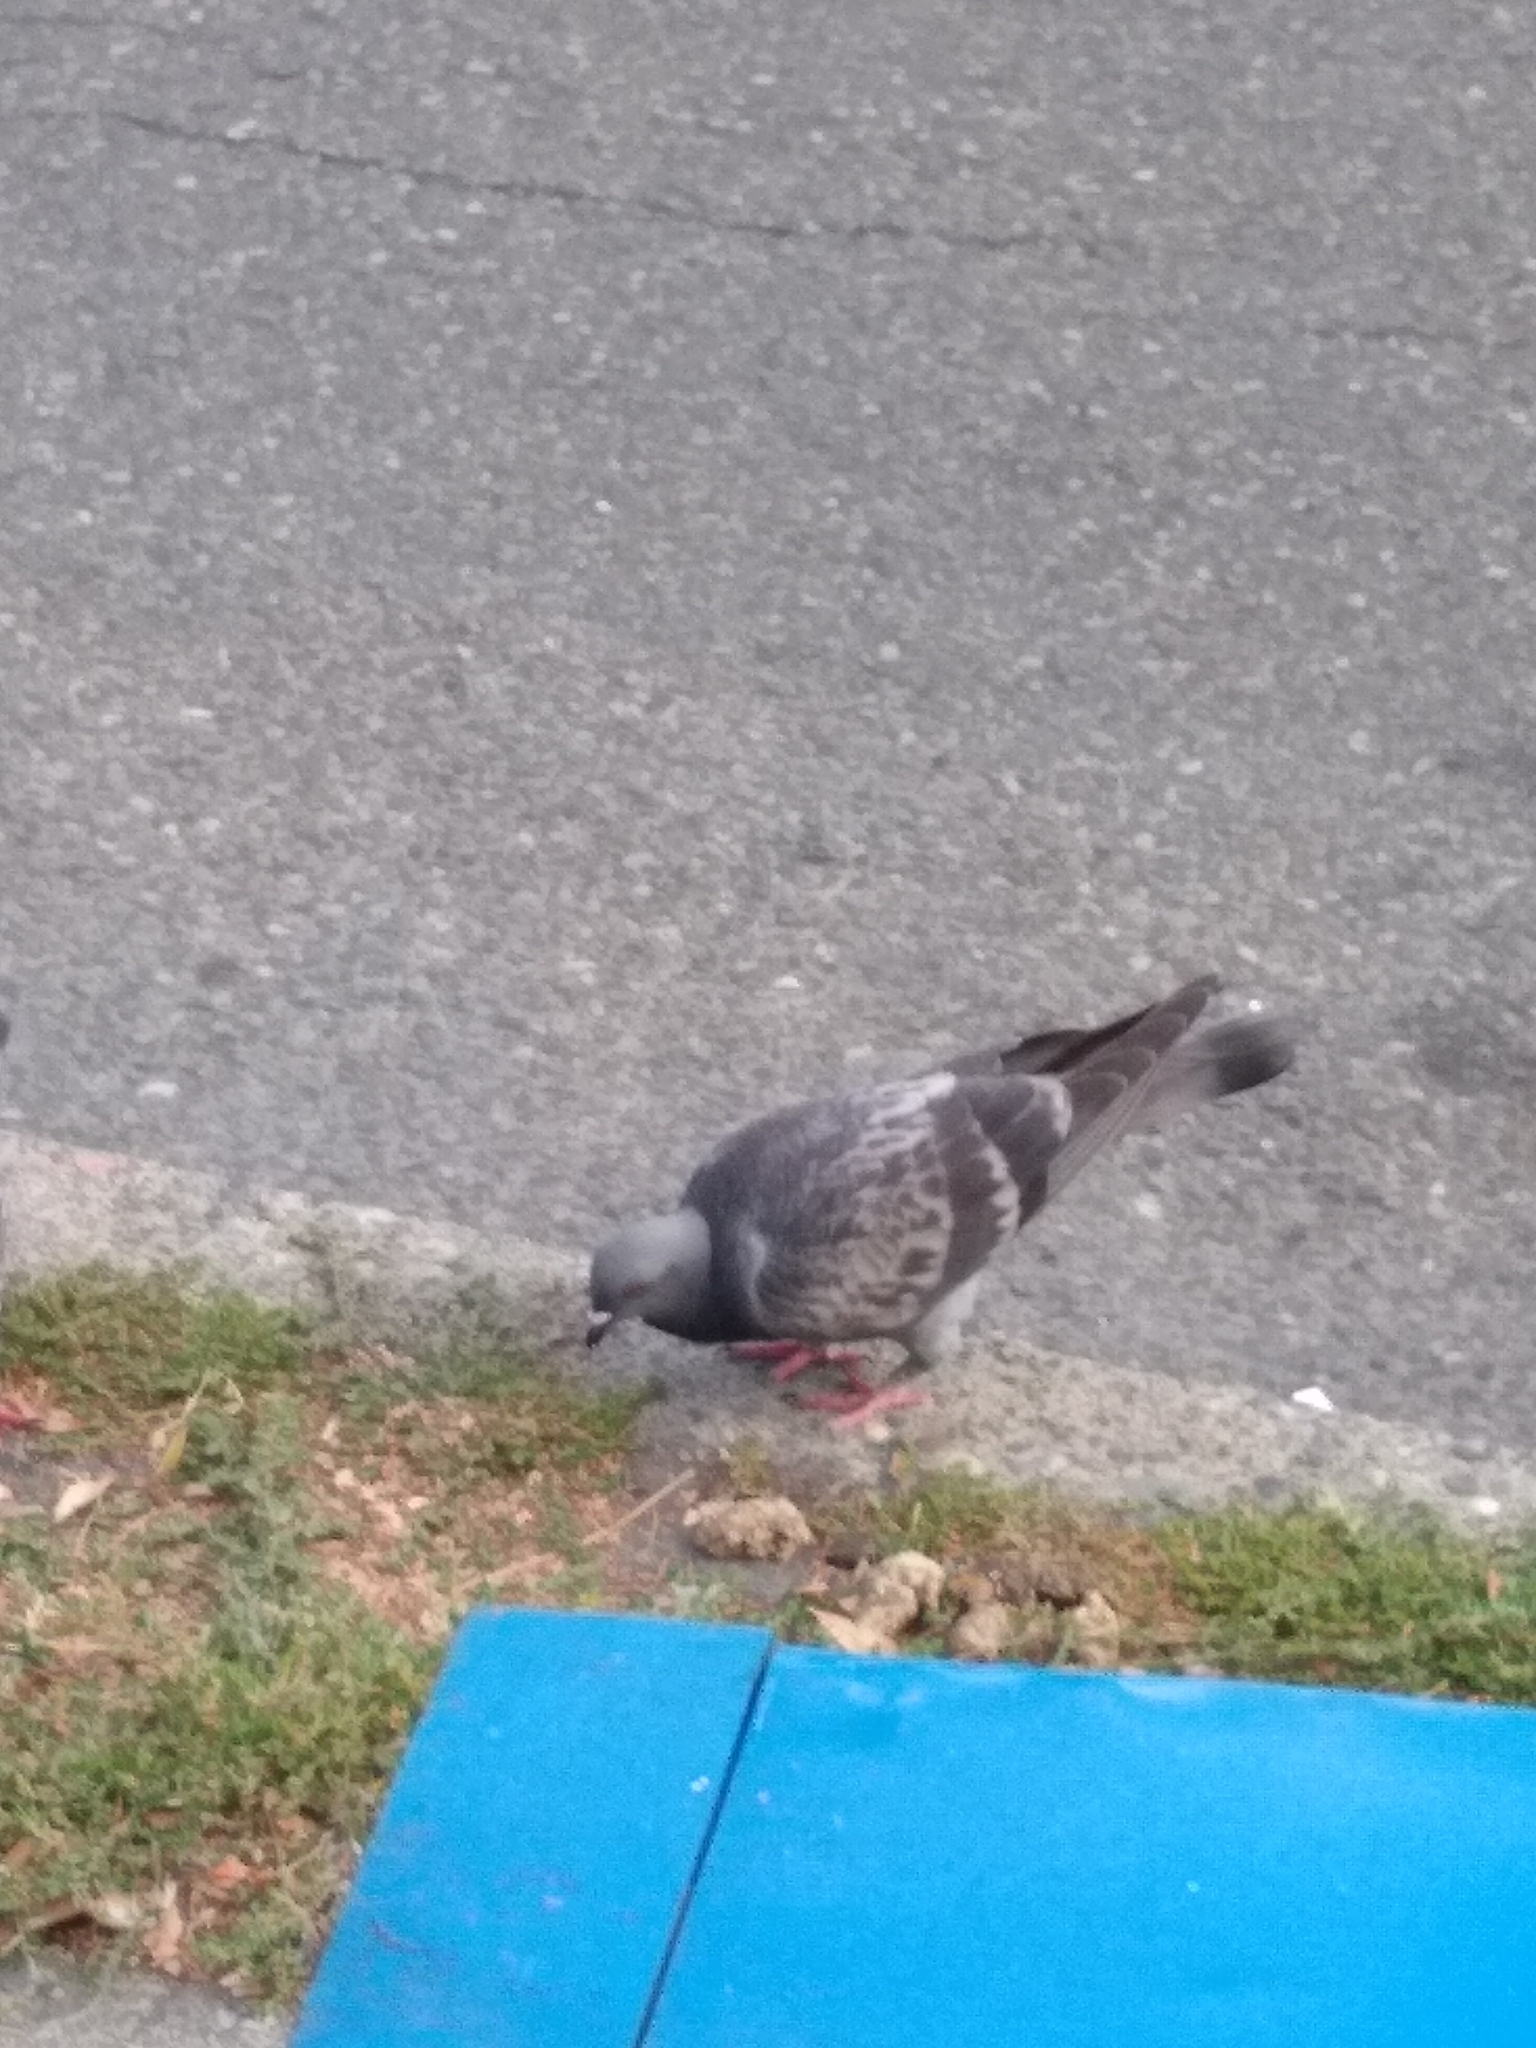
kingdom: Animalia
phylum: Chordata
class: Aves
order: Columbiformes
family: Columbidae
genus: Columba
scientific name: Columba livia
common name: Rock pigeon
